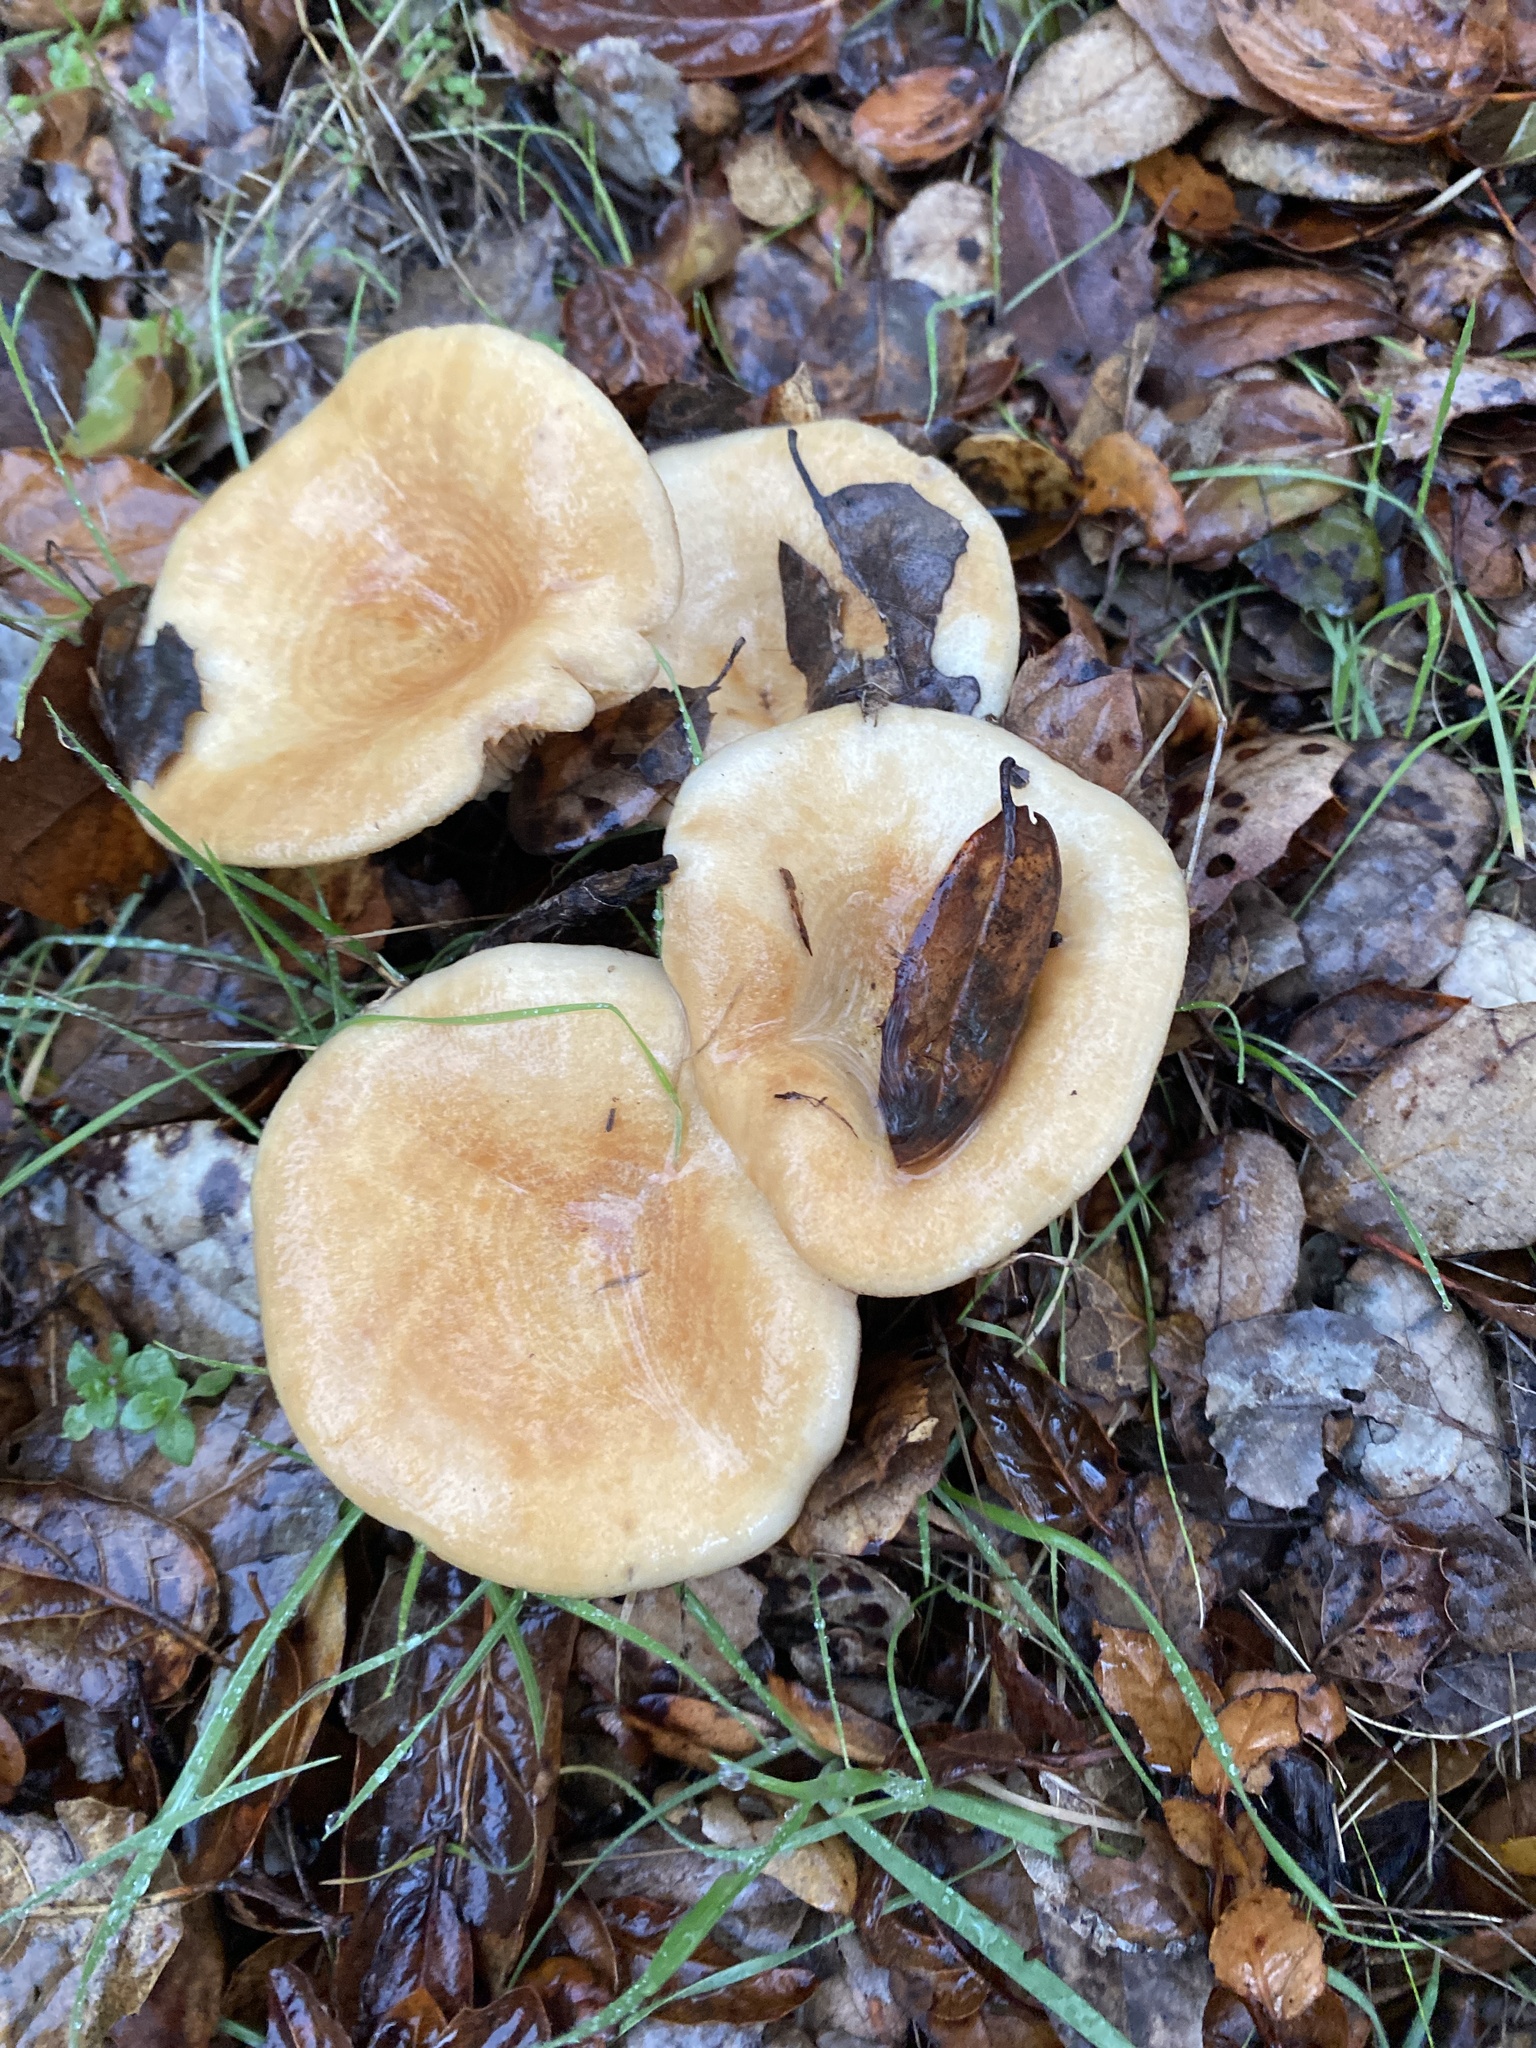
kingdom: Fungi
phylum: Basidiomycota
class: Agaricomycetes
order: Russulales
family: Russulaceae
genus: Lactarius
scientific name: Lactarius alnicola
